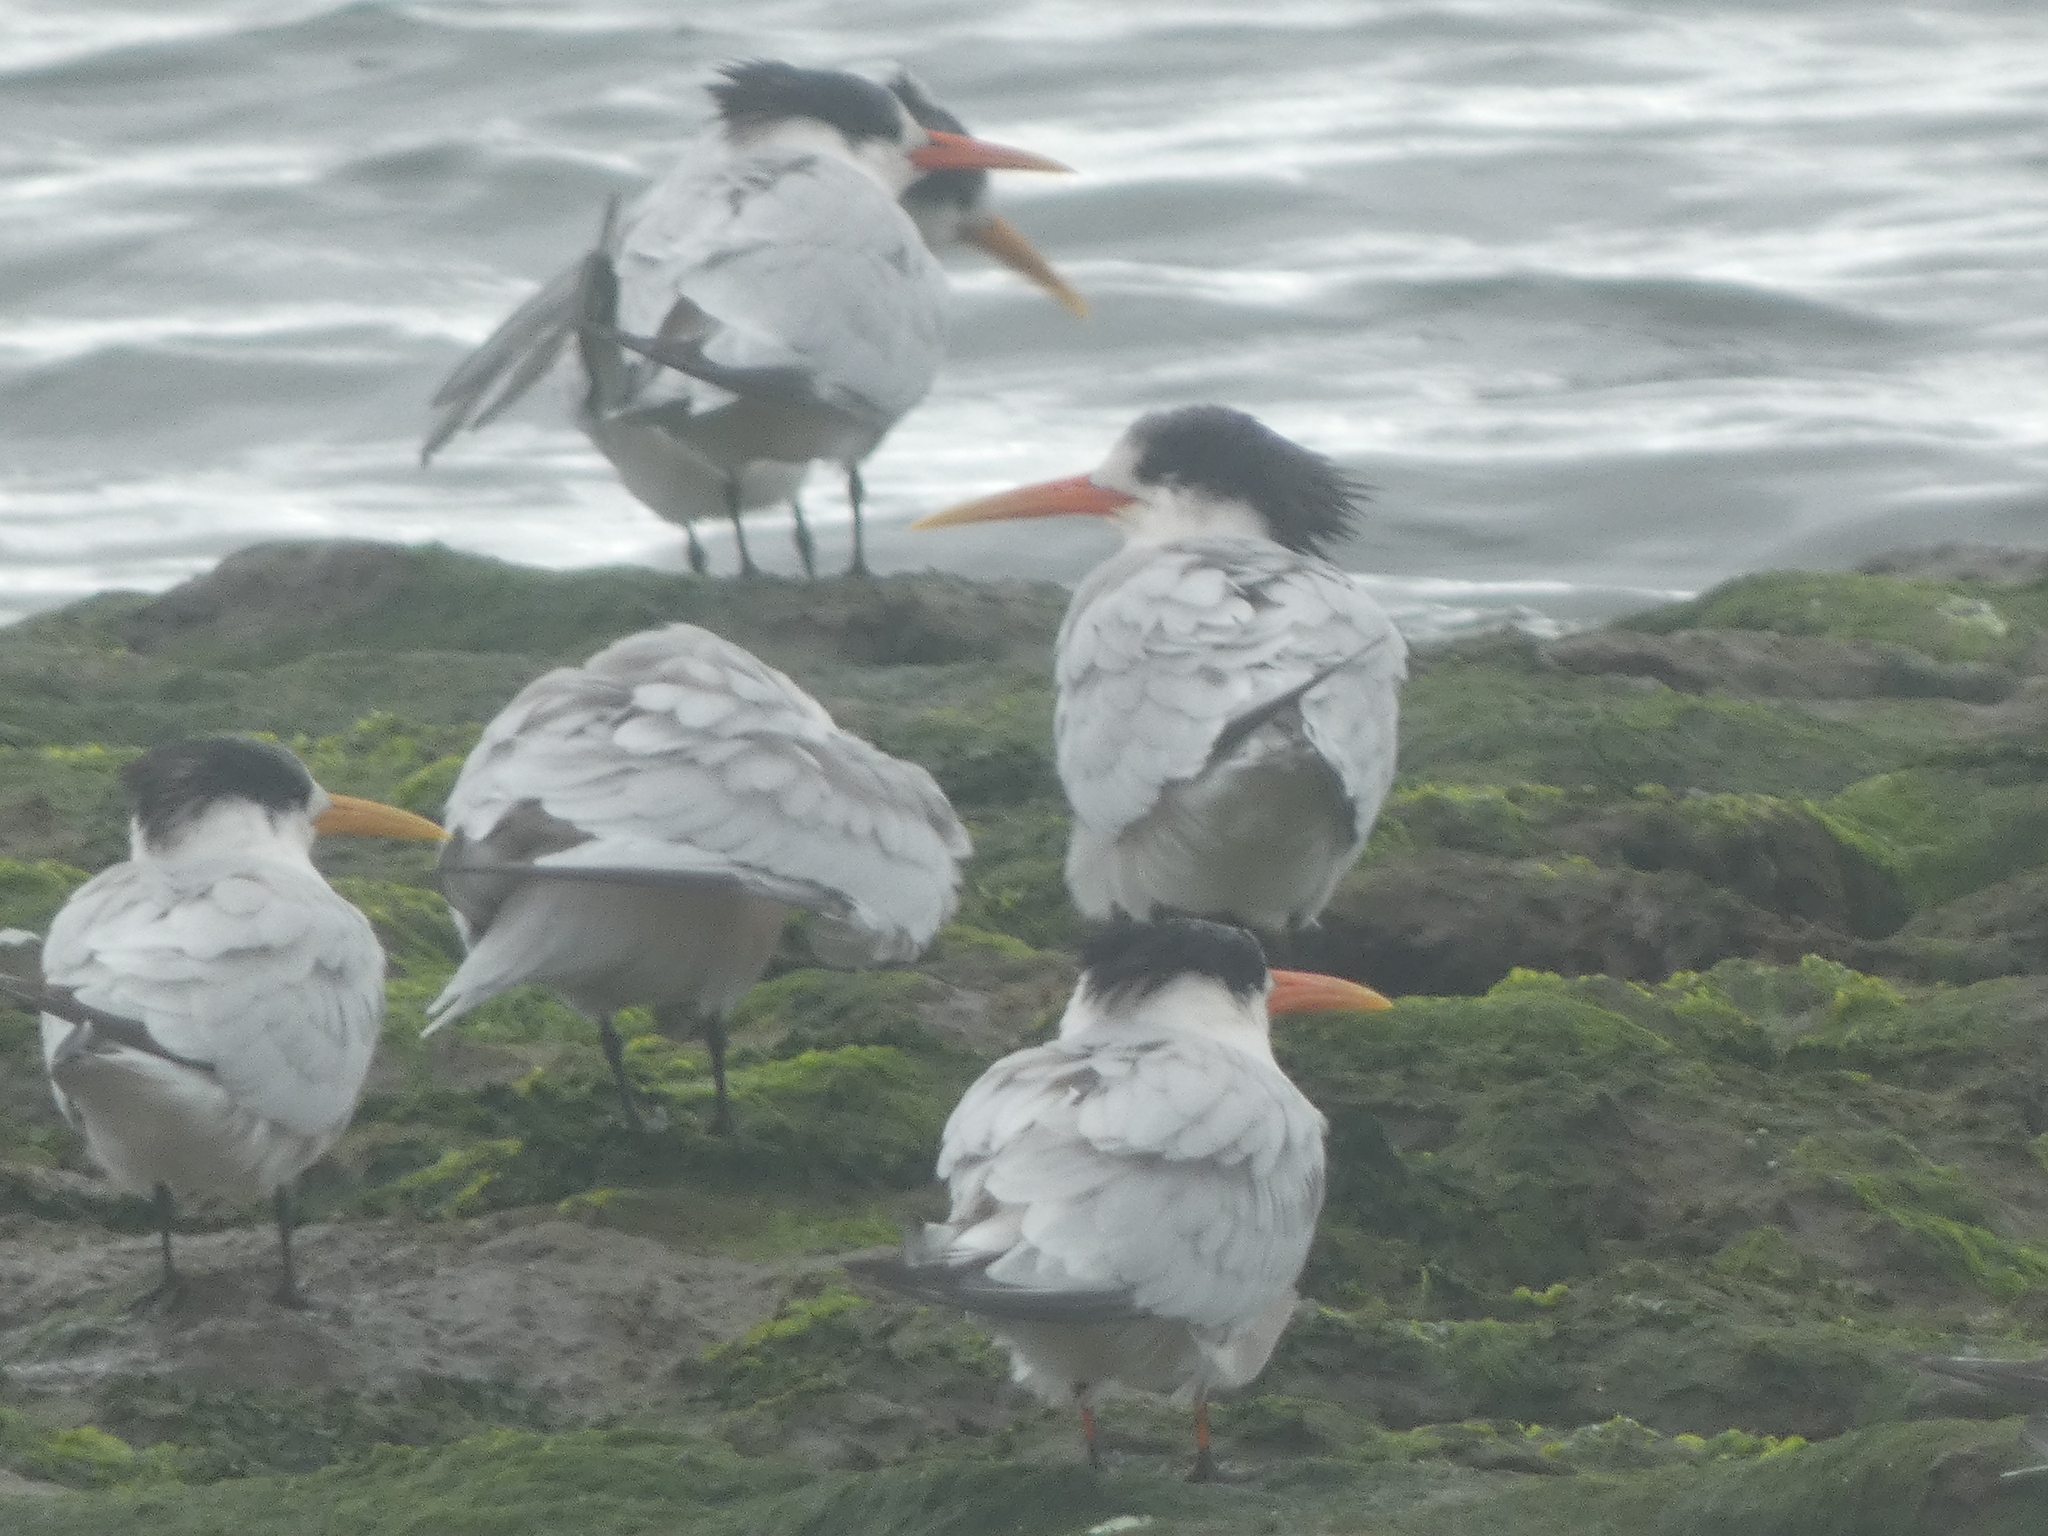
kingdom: Animalia
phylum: Chordata
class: Aves
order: Charadriiformes
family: Laridae
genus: Thalasseus
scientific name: Thalasseus elegans
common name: Elegant tern
